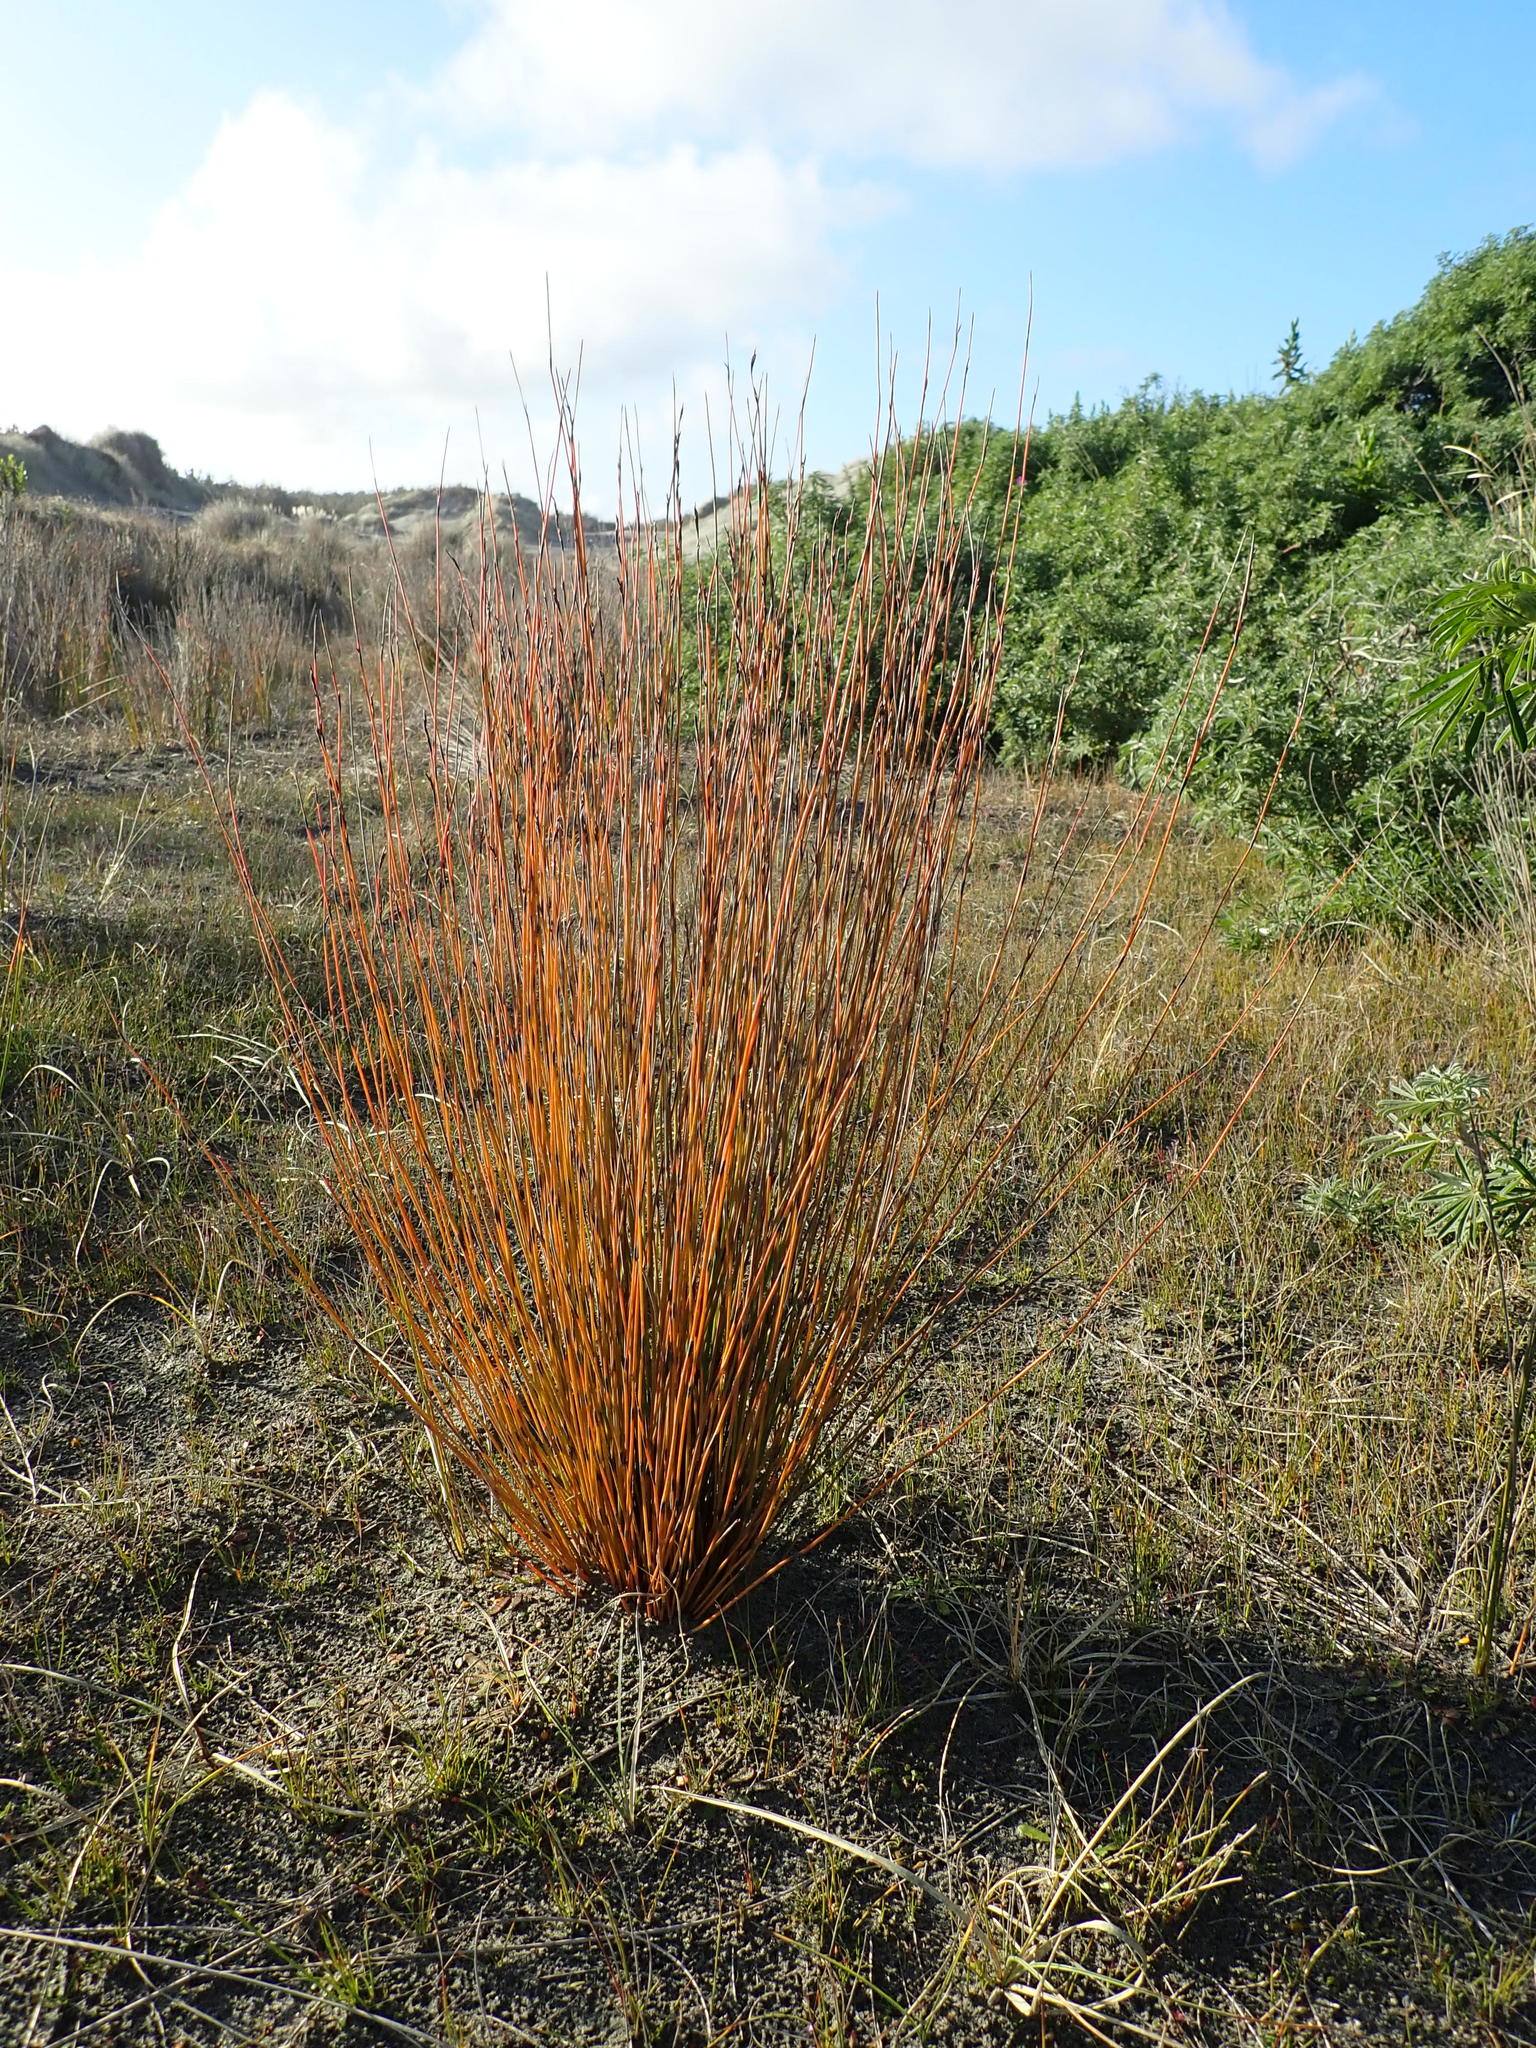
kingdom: Plantae
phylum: Tracheophyta
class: Liliopsida
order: Poales
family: Restionaceae
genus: Apodasmia
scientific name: Apodasmia similis
